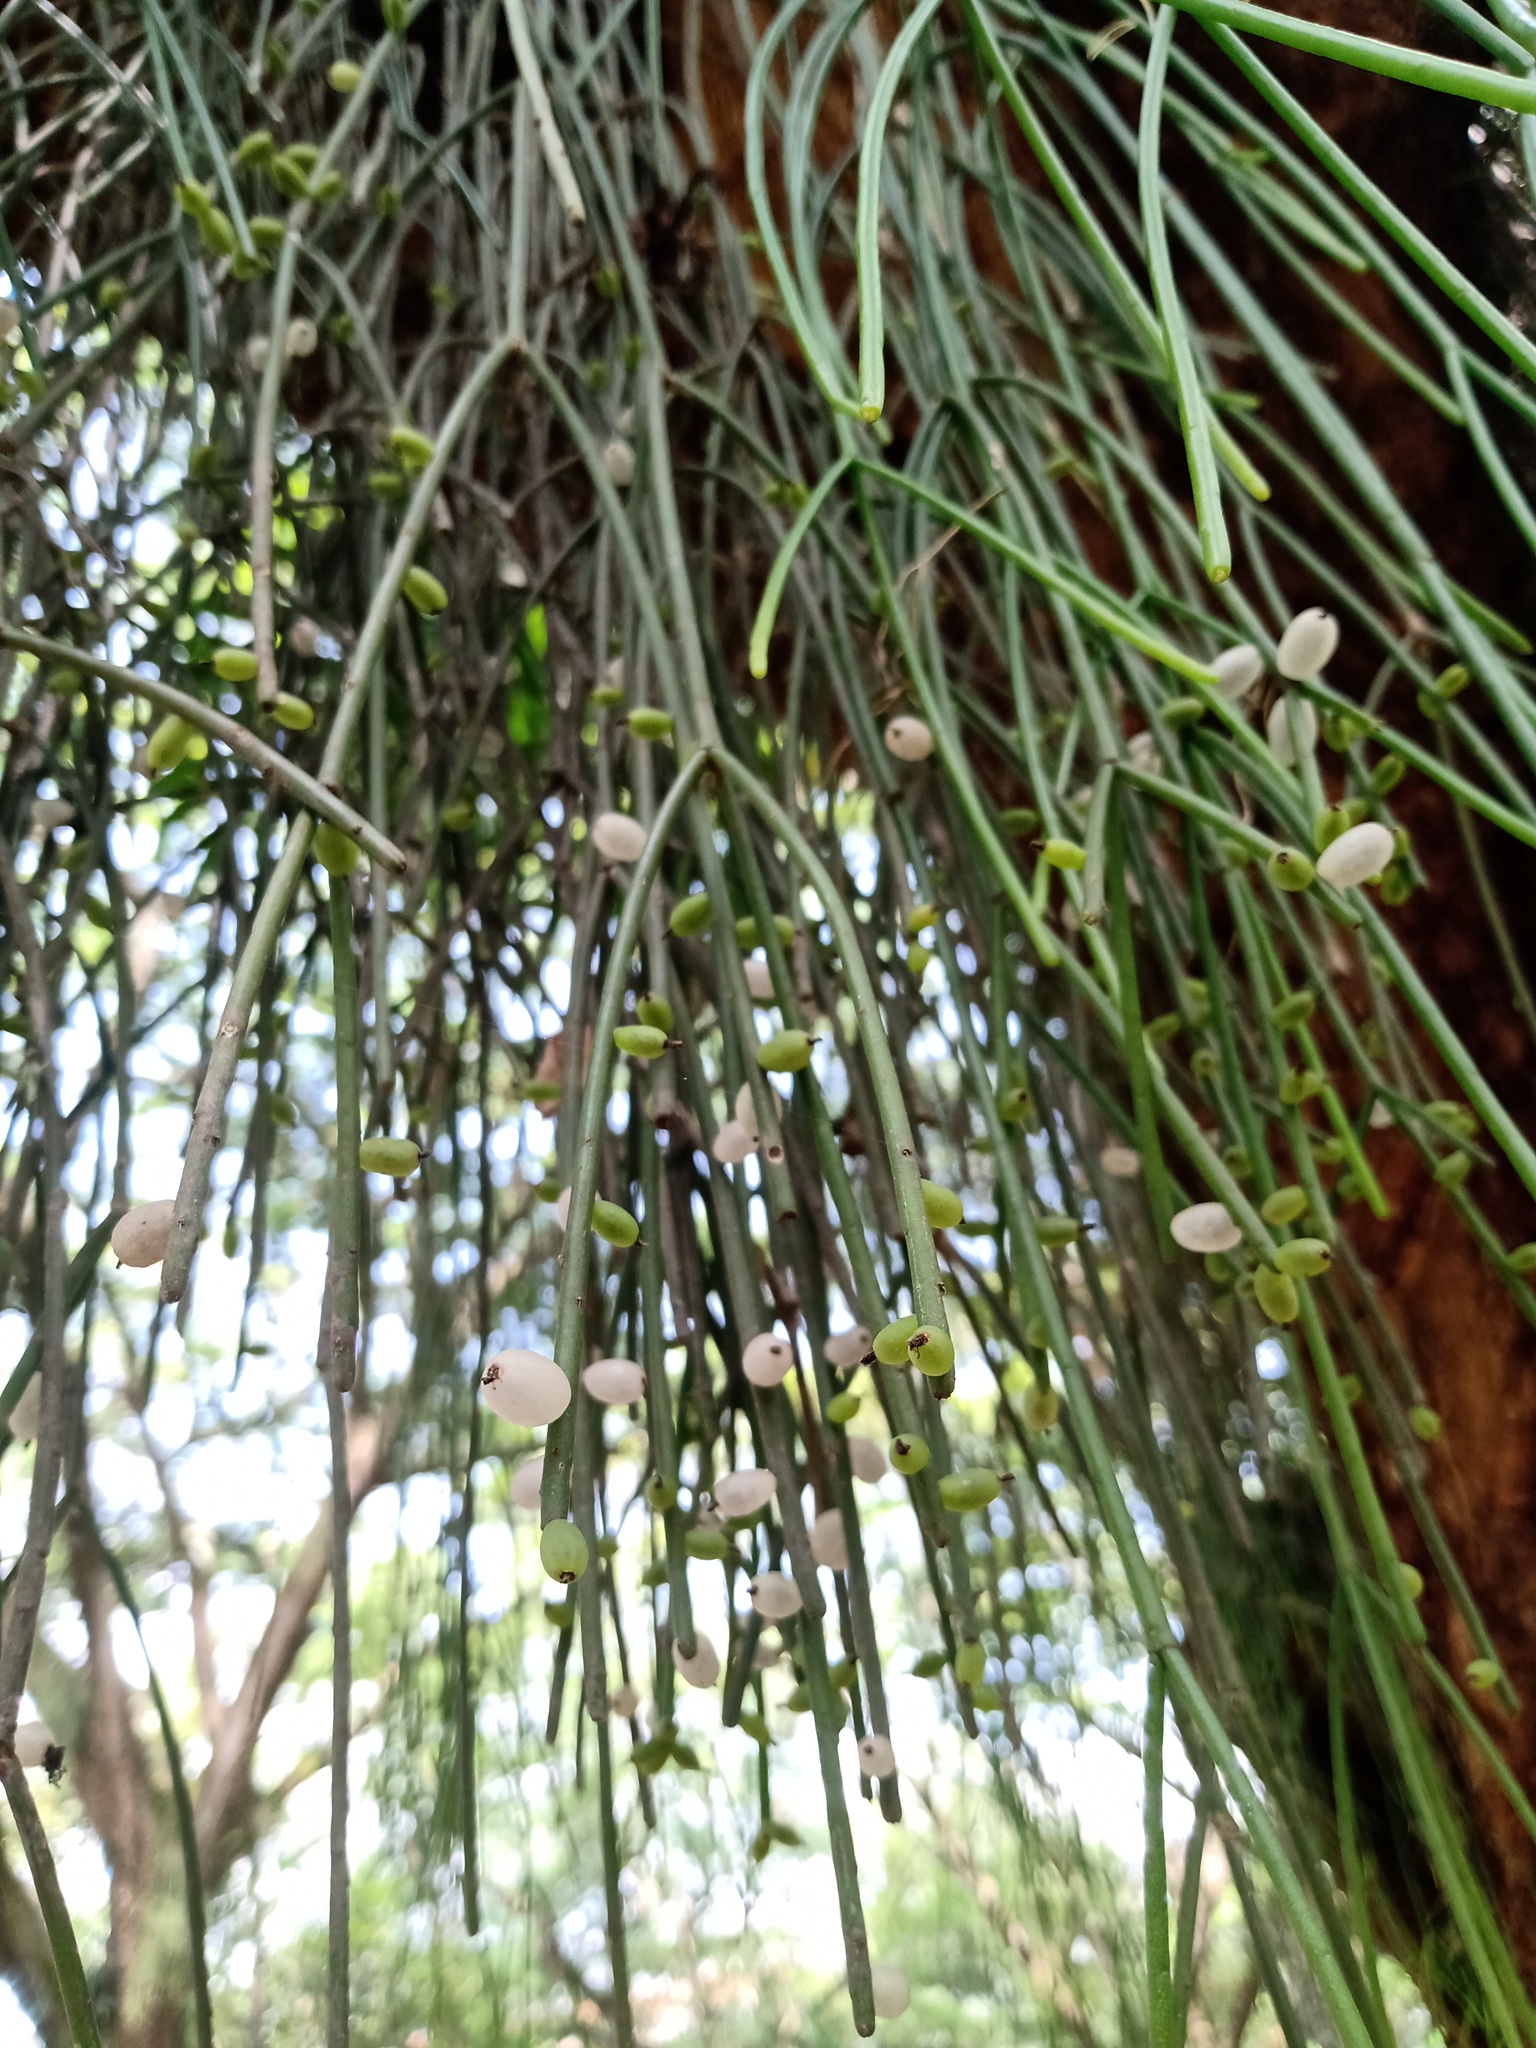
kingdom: Plantae
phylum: Tracheophyta
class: Magnoliopsida
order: Caryophyllales
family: Cactaceae
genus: Rhipsalis
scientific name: Rhipsalis baccifera
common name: Mistletoe cactus
